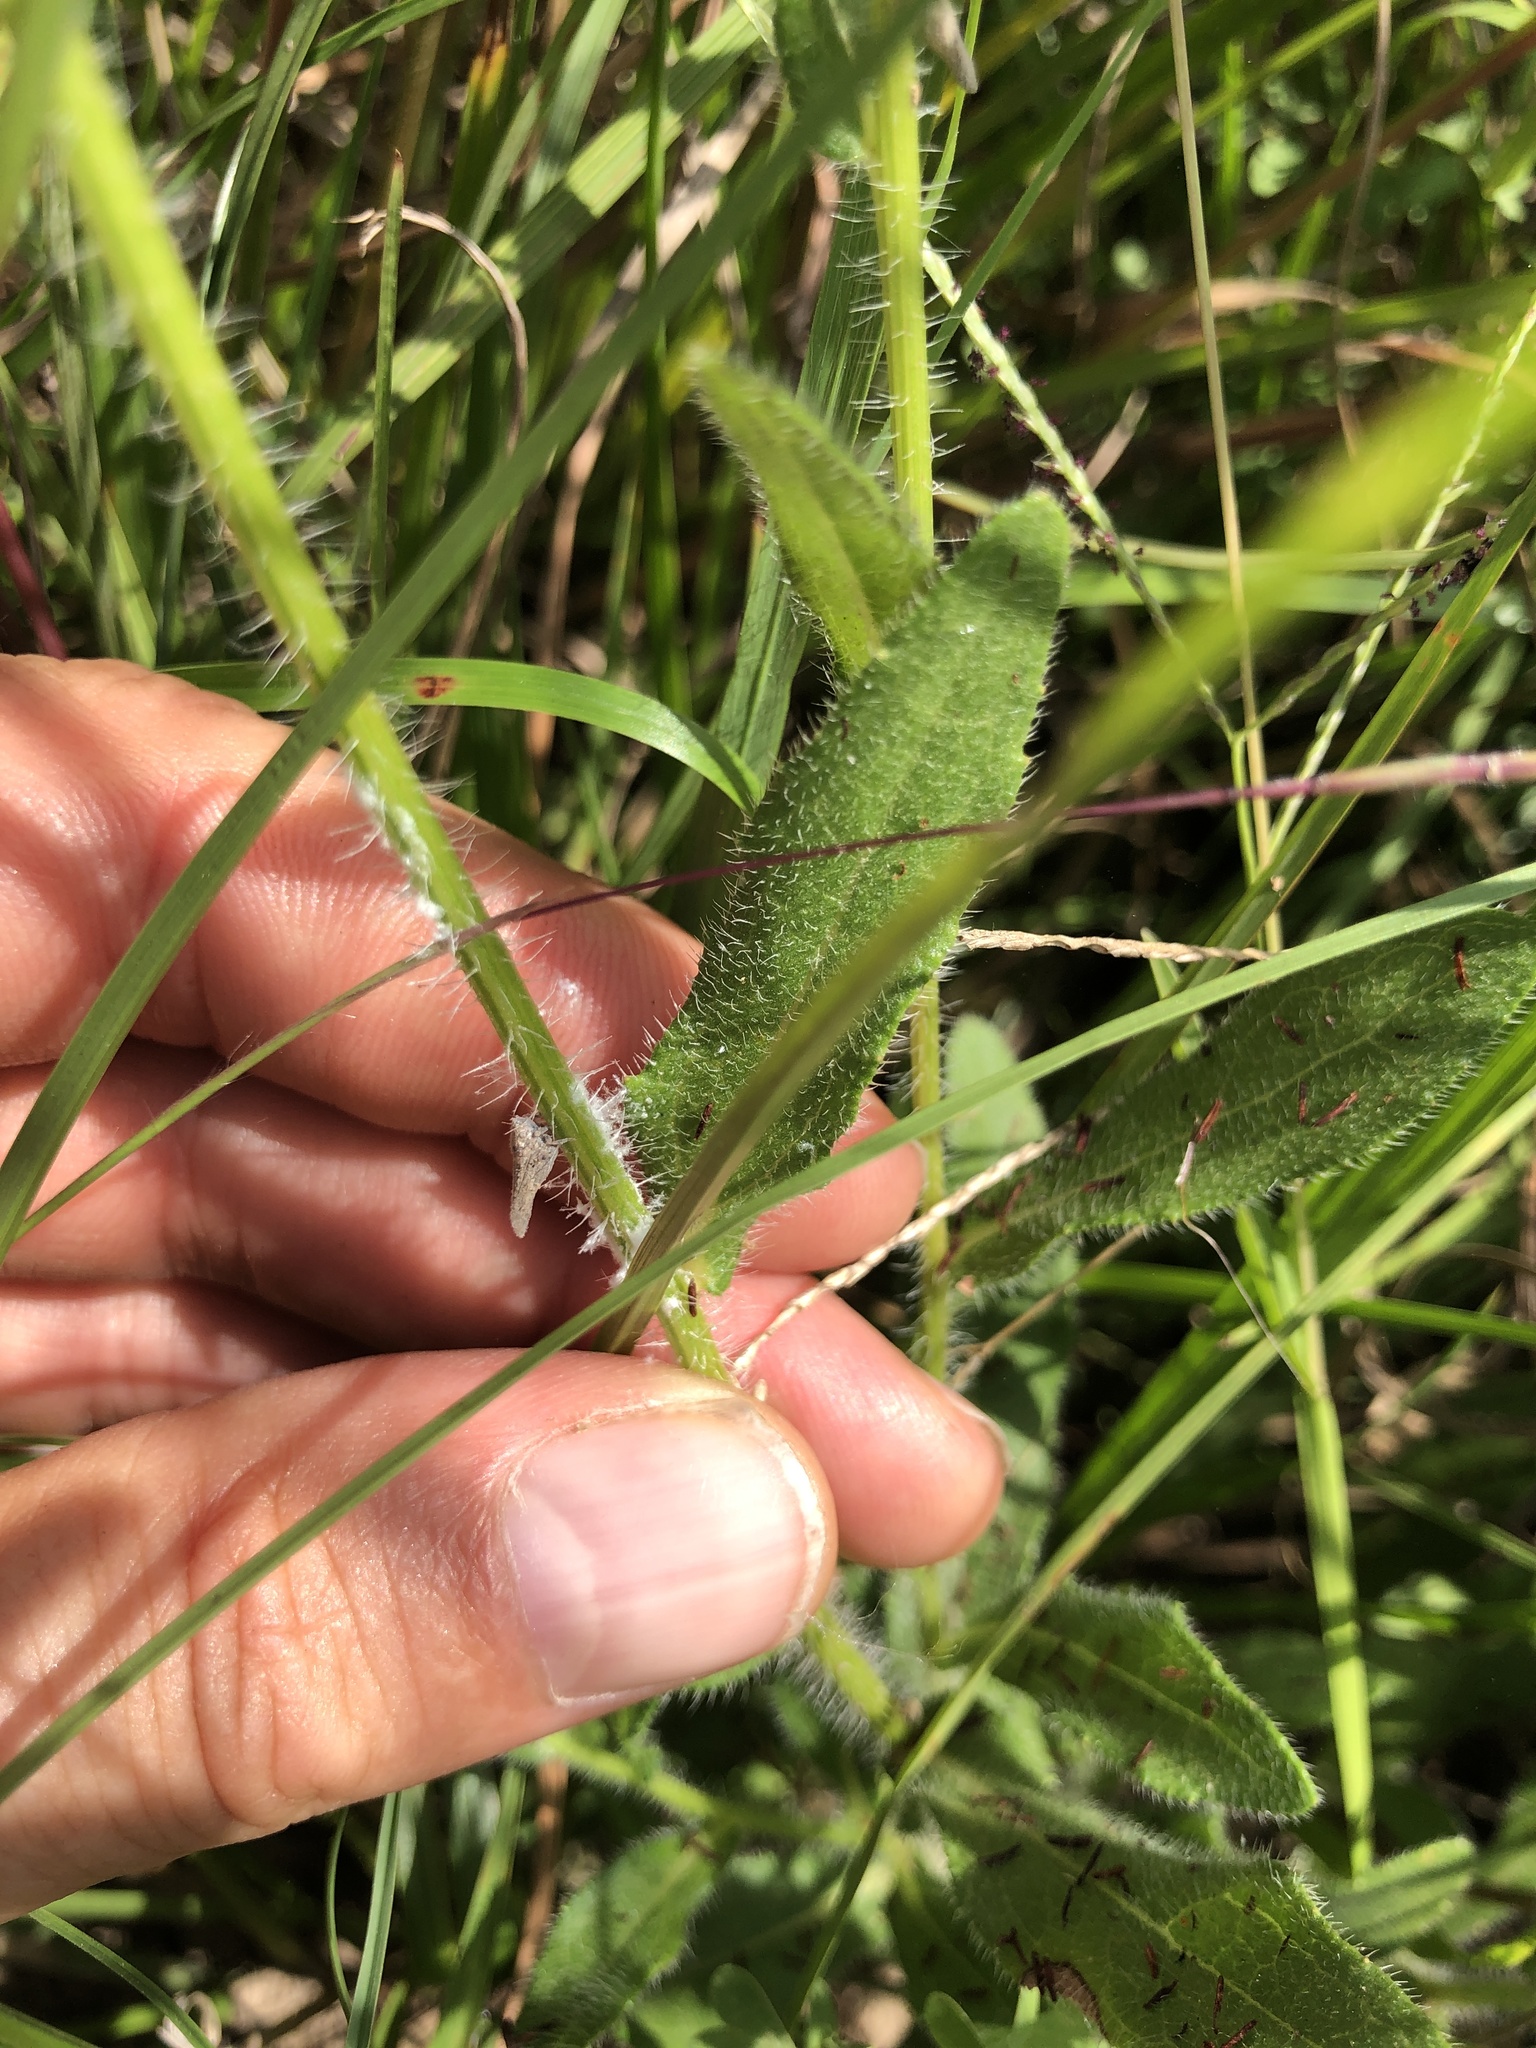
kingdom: Plantae
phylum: Tracheophyta
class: Magnoliopsida
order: Asterales
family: Asteraceae
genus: Rudbeckia
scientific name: Rudbeckia hirta
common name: Black-eyed-susan
